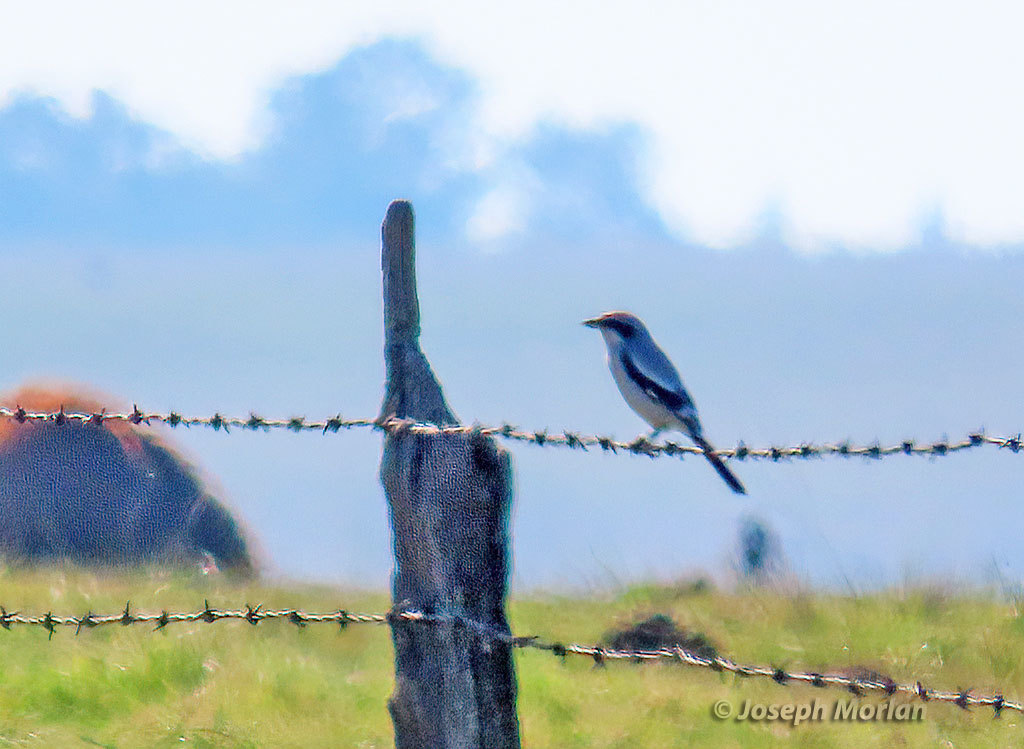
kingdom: Animalia
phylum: Chordata
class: Aves
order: Passeriformes
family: Laniidae
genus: Lanius
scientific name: Lanius borealis
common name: Northern shrike
